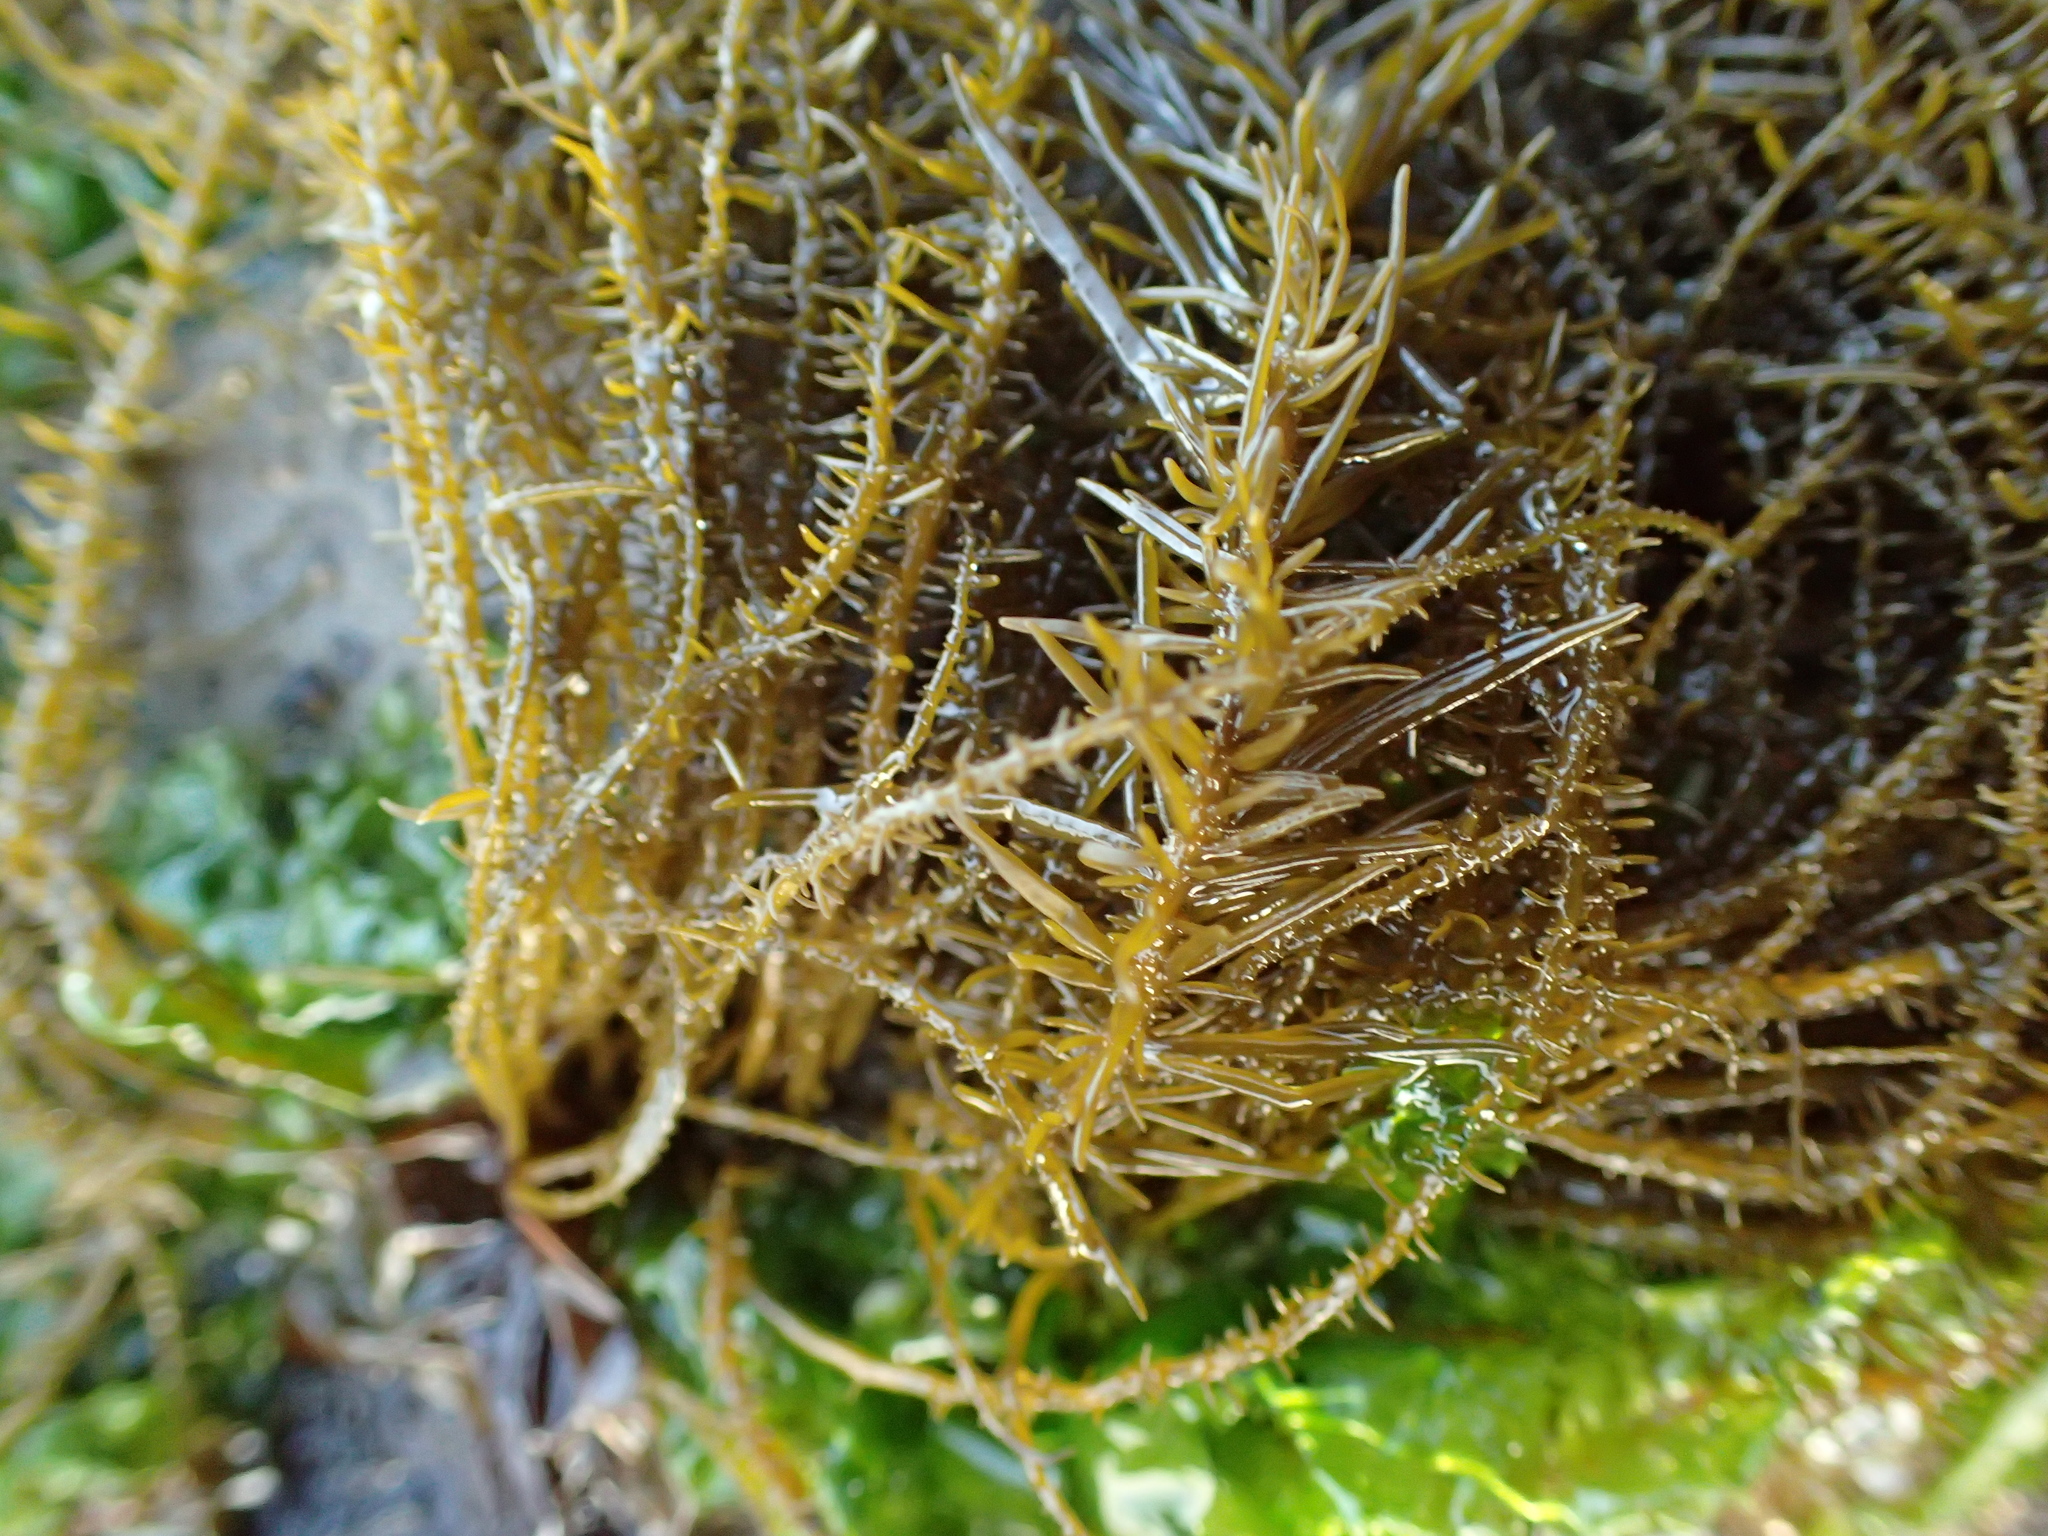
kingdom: Chromista
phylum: Ochrophyta
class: Phaeophyceae
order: Scytosiphonales
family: Scytosiphonaceae
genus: Analipus
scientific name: Analipus japonicus
